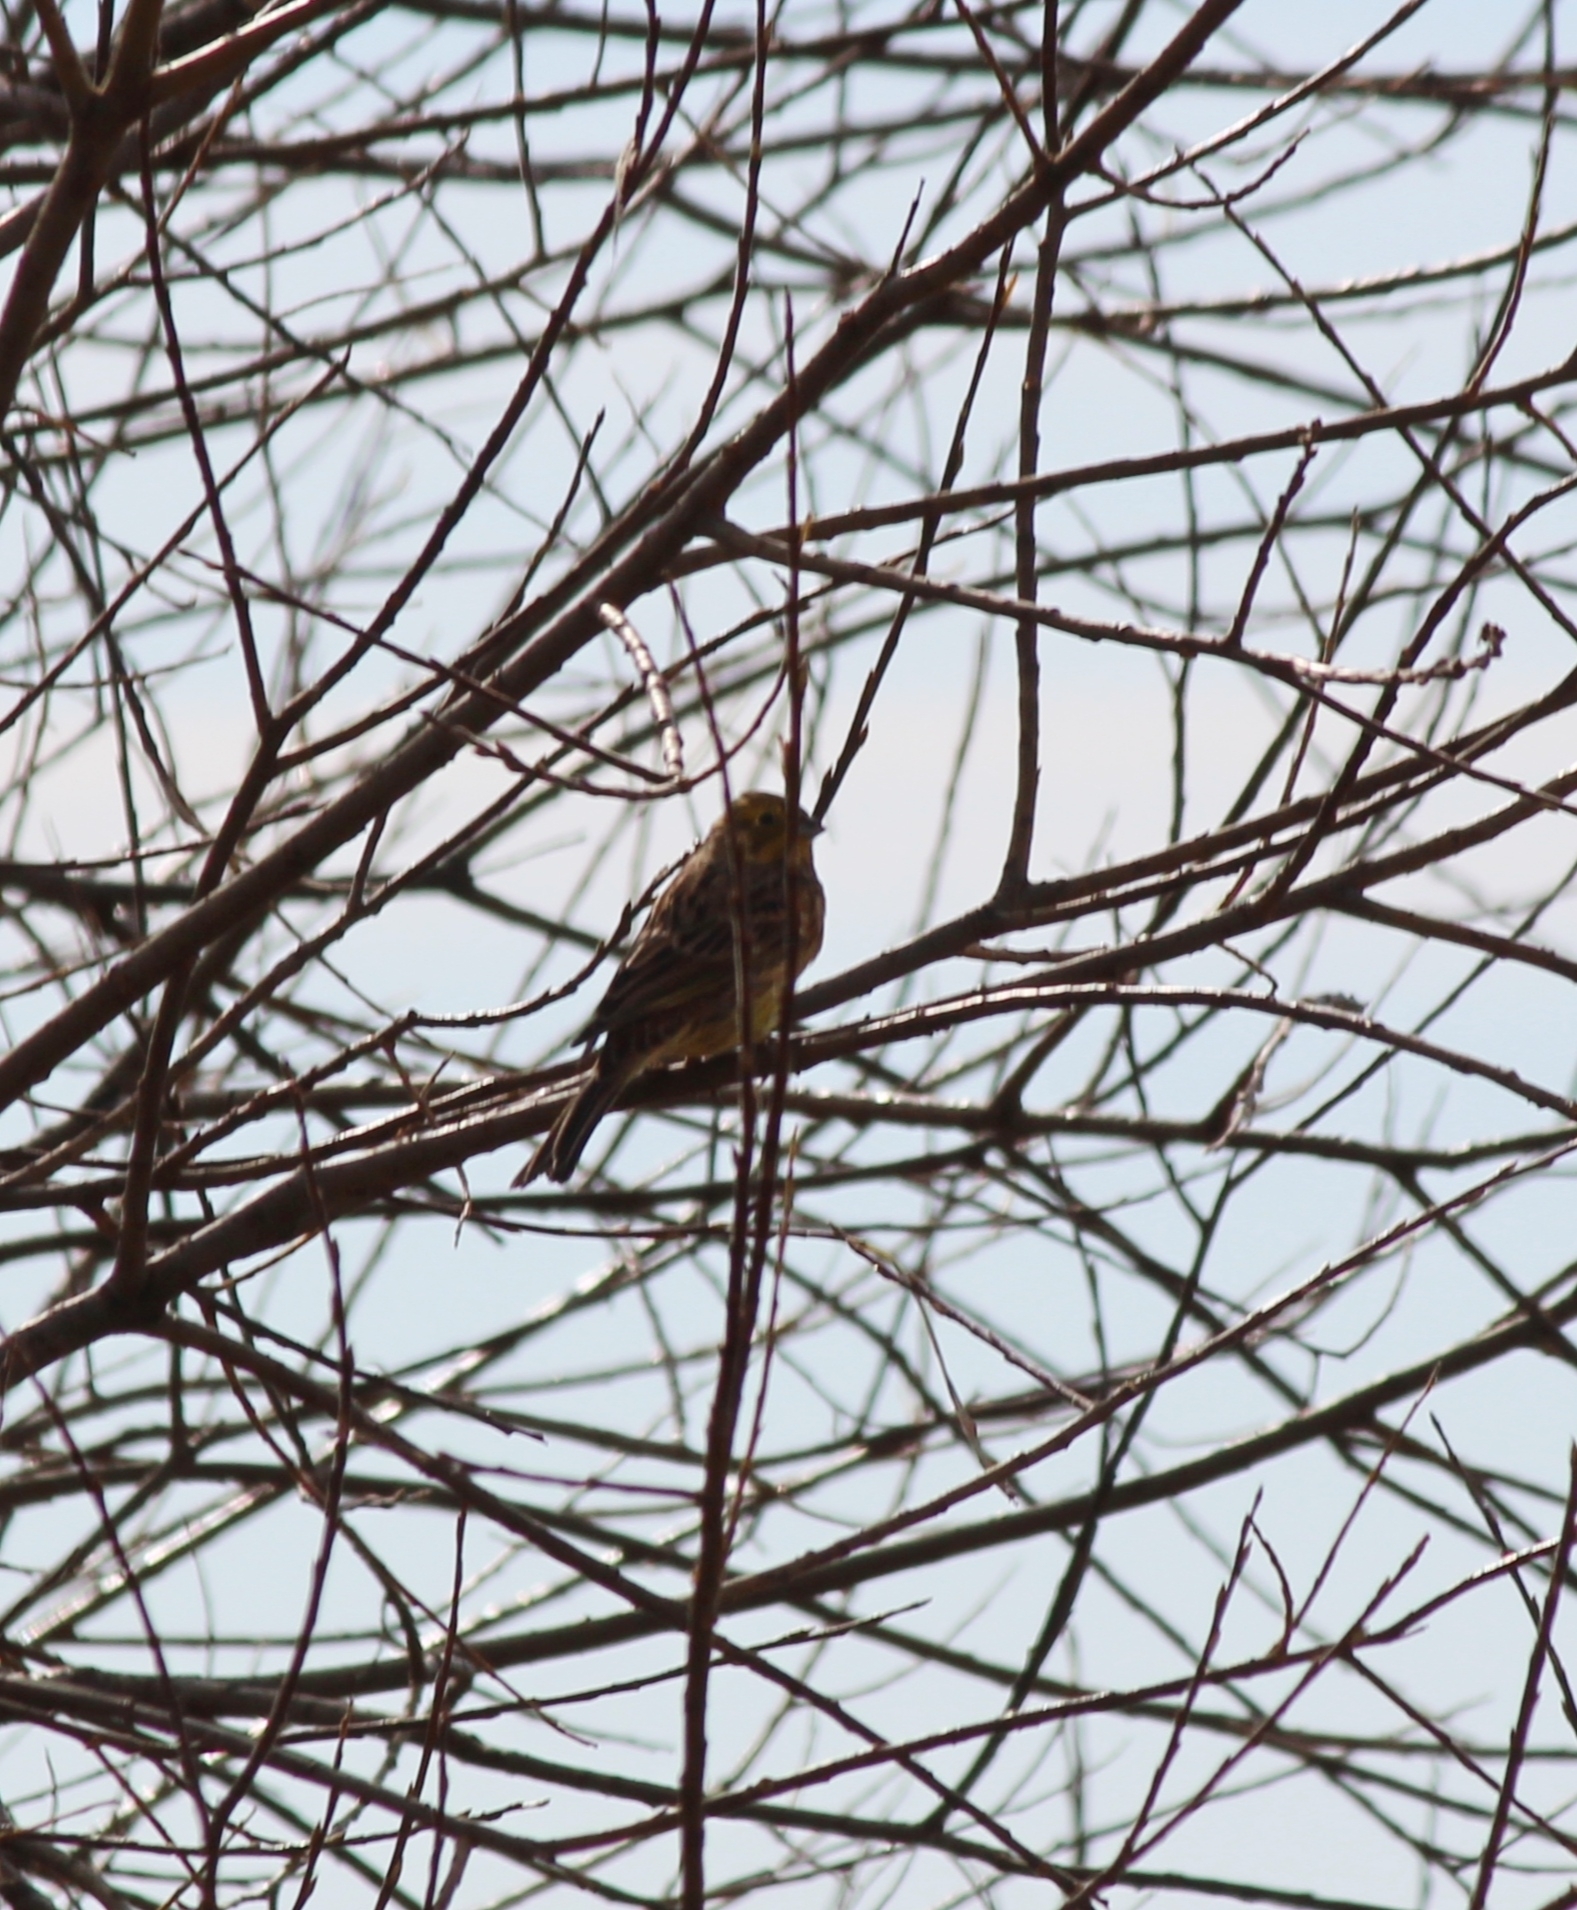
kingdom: Animalia
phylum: Chordata
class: Aves
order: Passeriformes
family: Emberizidae
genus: Emberiza
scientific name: Emberiza citrinella
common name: Yellowhammer
